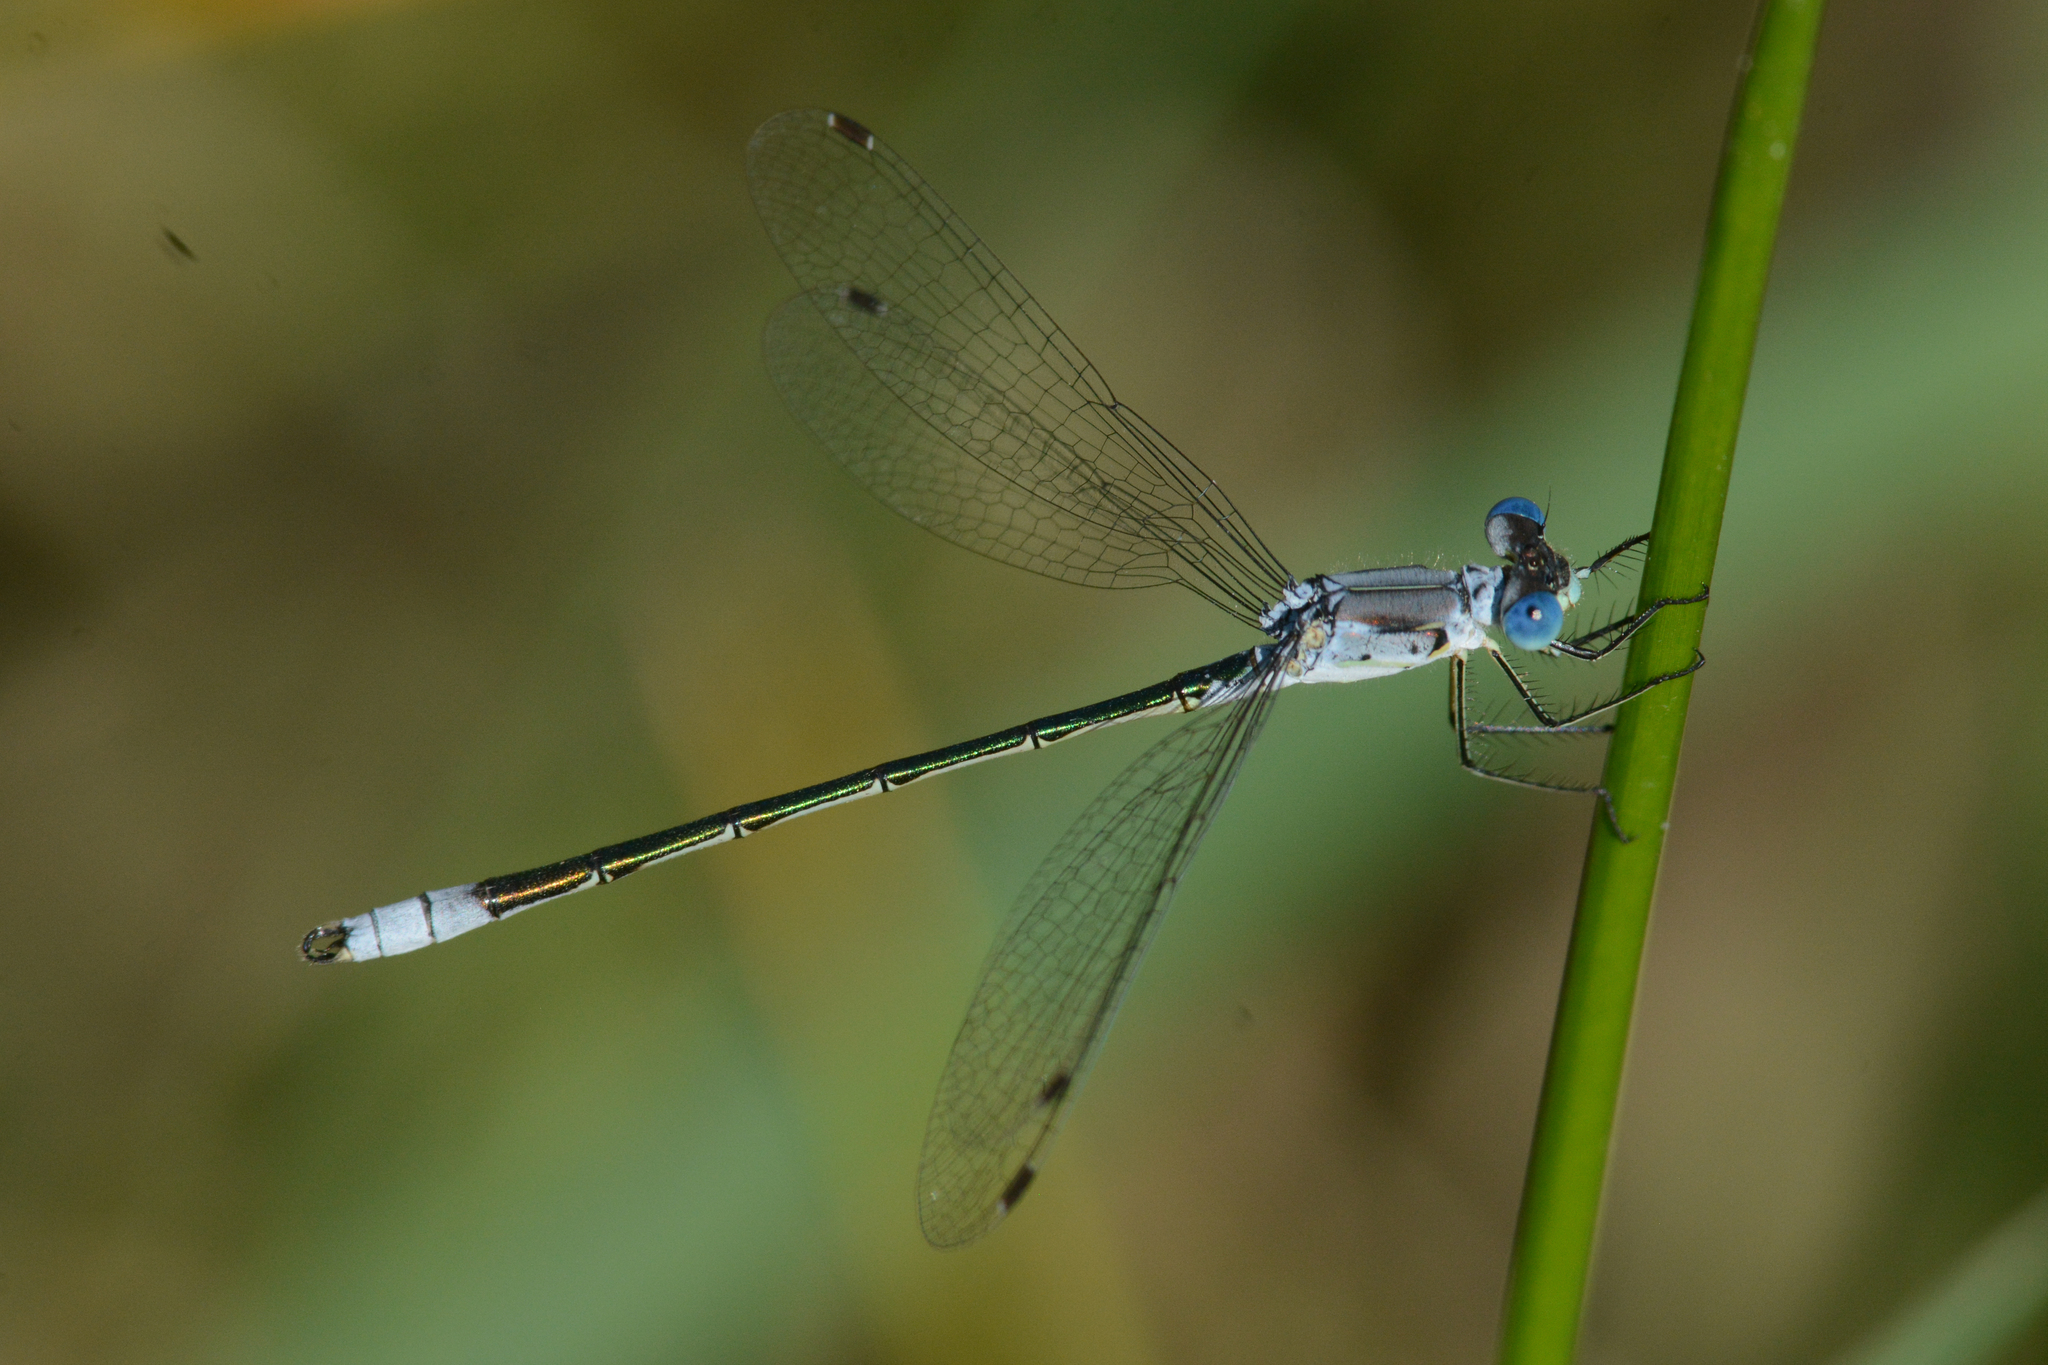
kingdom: Animalia
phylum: Arthropoda
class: Insecta
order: Odonata
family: Lestidae
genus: Lestes
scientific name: Lestes unguiculatus
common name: Lyre-tipped spreadwing
